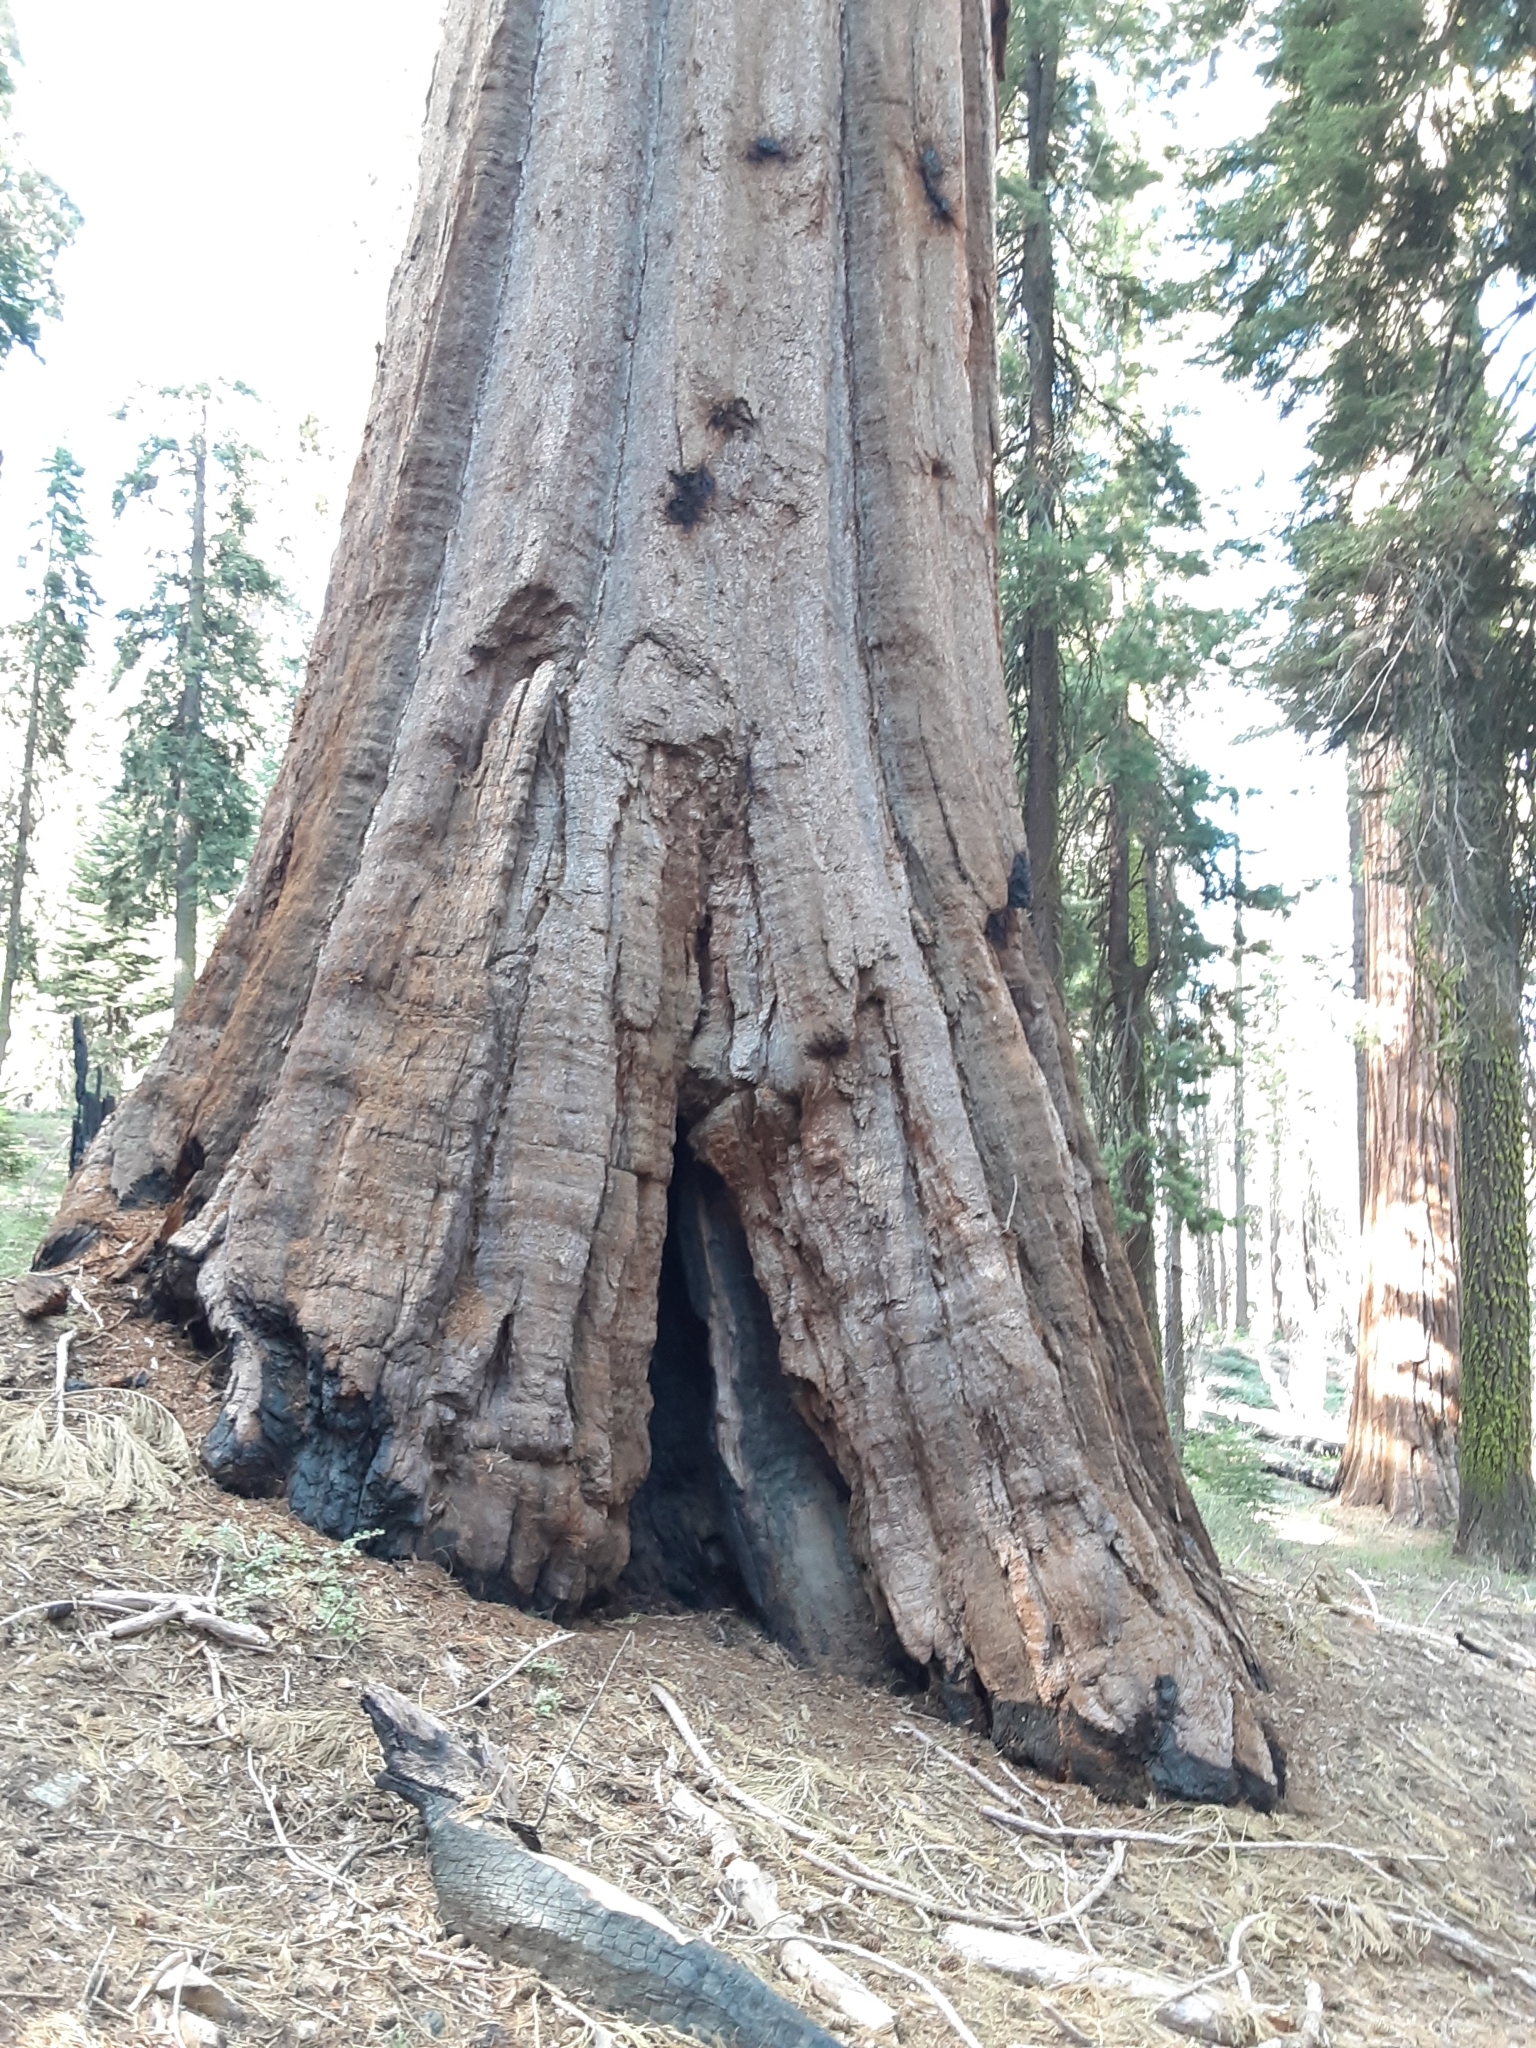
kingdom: Plantae
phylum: Tracheophyta
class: Pinopsida
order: Pinales
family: Cupressaceae
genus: Sequoiadendron
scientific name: Sequoiadendron giganteum
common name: Wellingtonia
